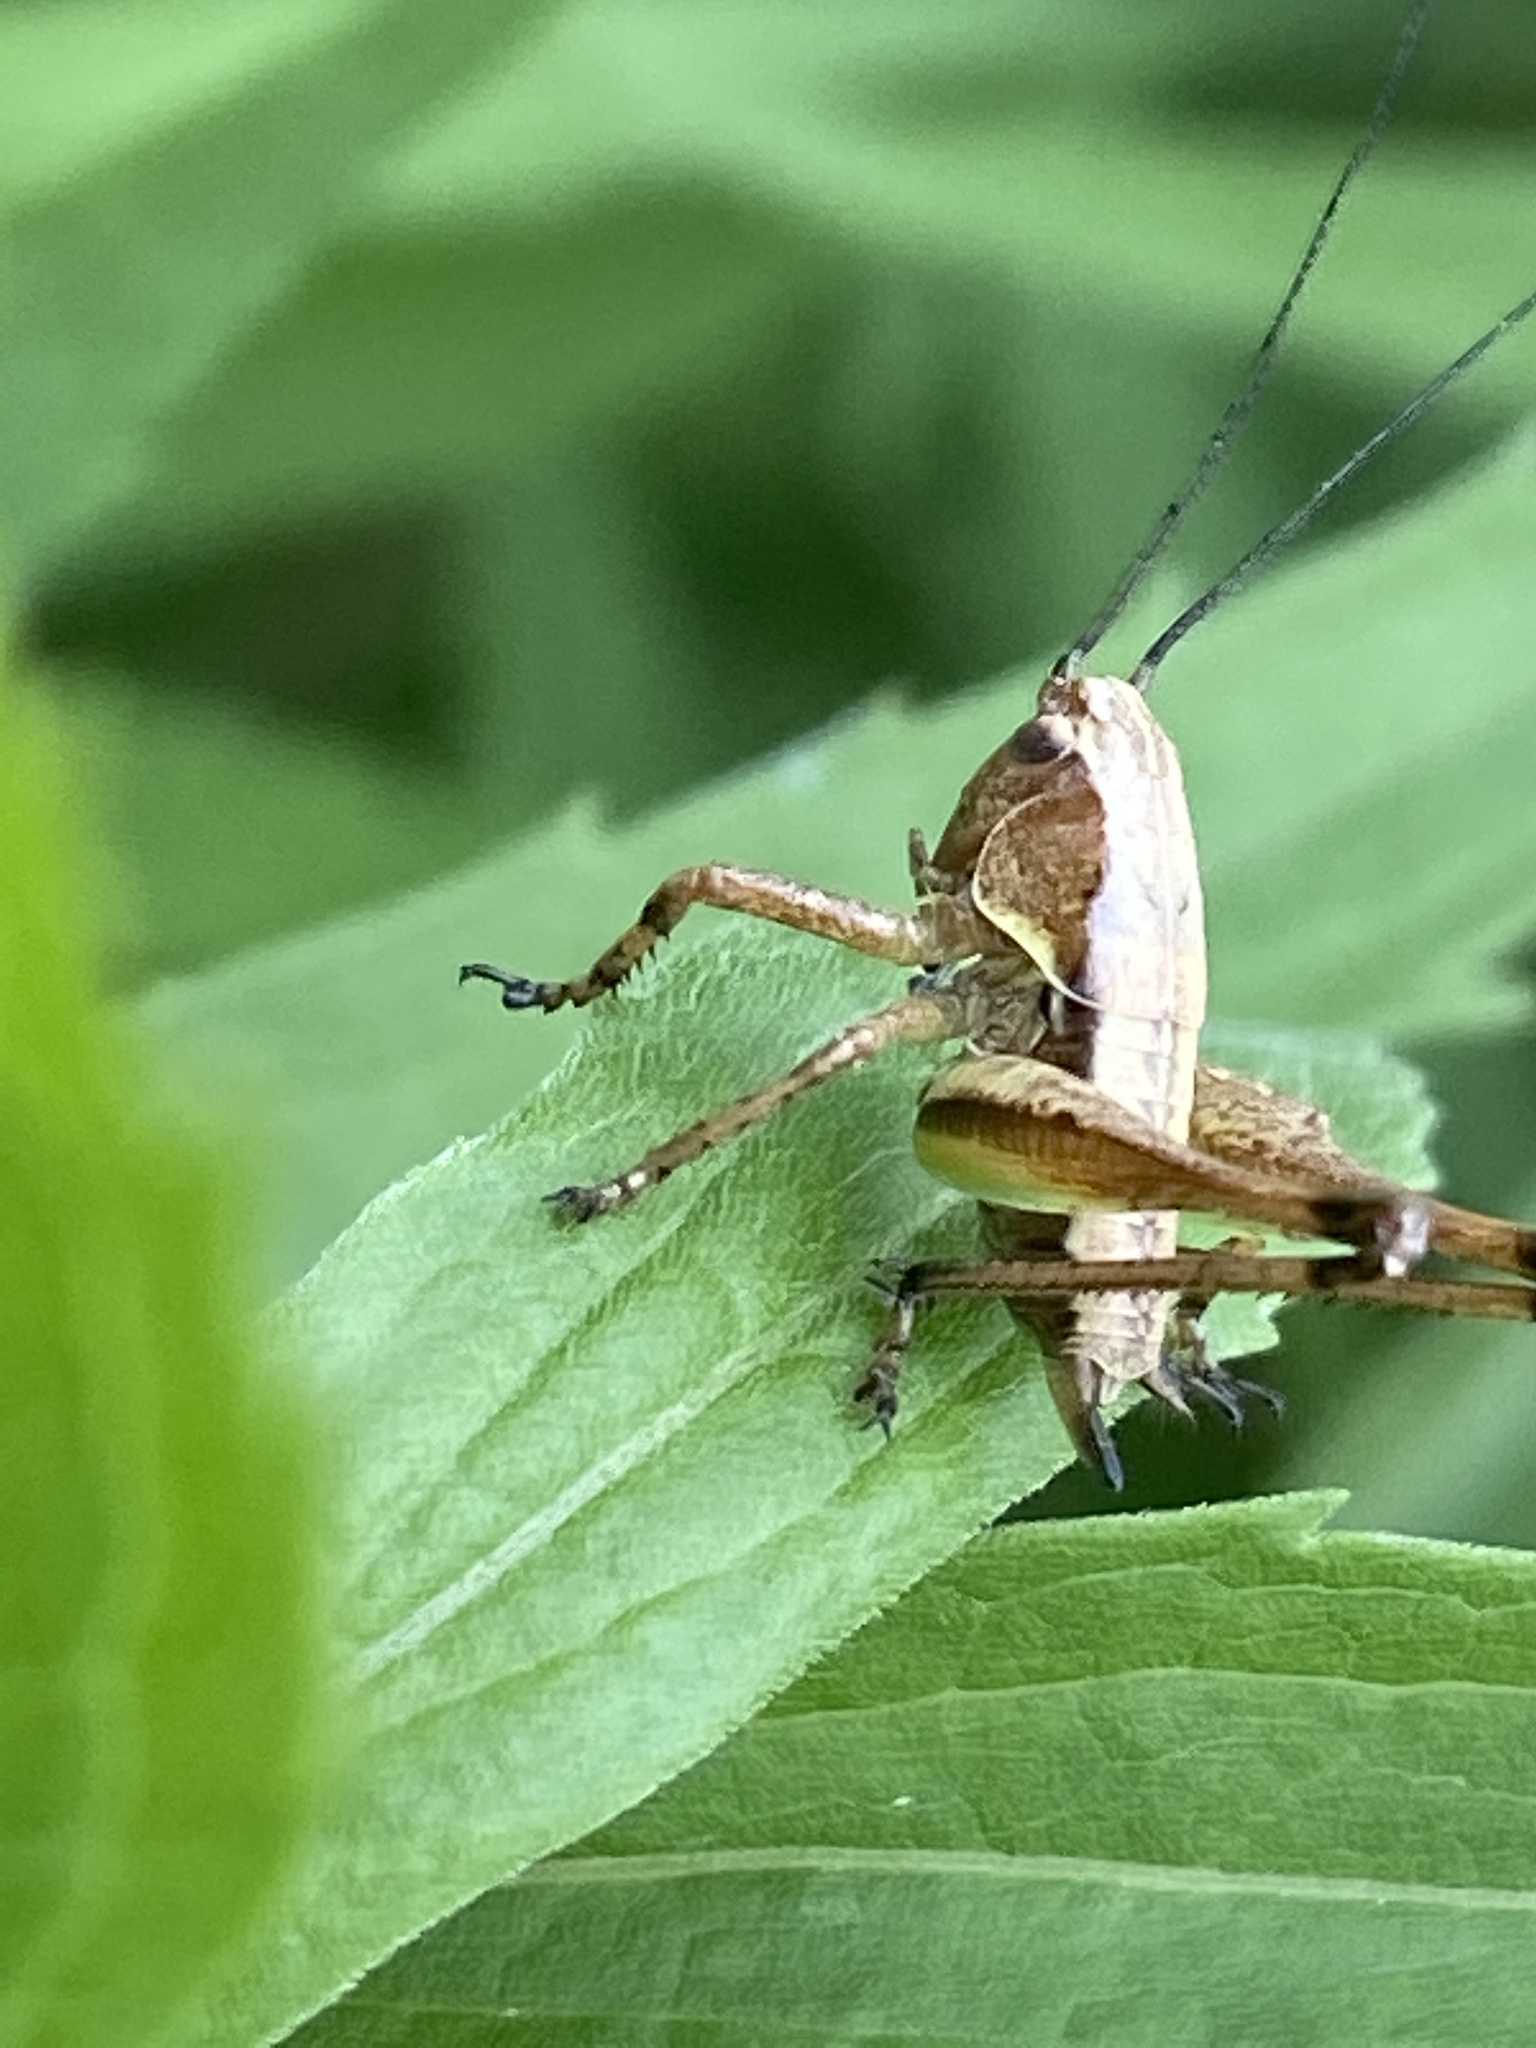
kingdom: Animalia
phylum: Arthropoda
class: Insecta
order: Orthoptera
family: Tettigoniidae
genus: Pholidoptera
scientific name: Pholidoptera griseoaptera
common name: Dark bush-cricket
